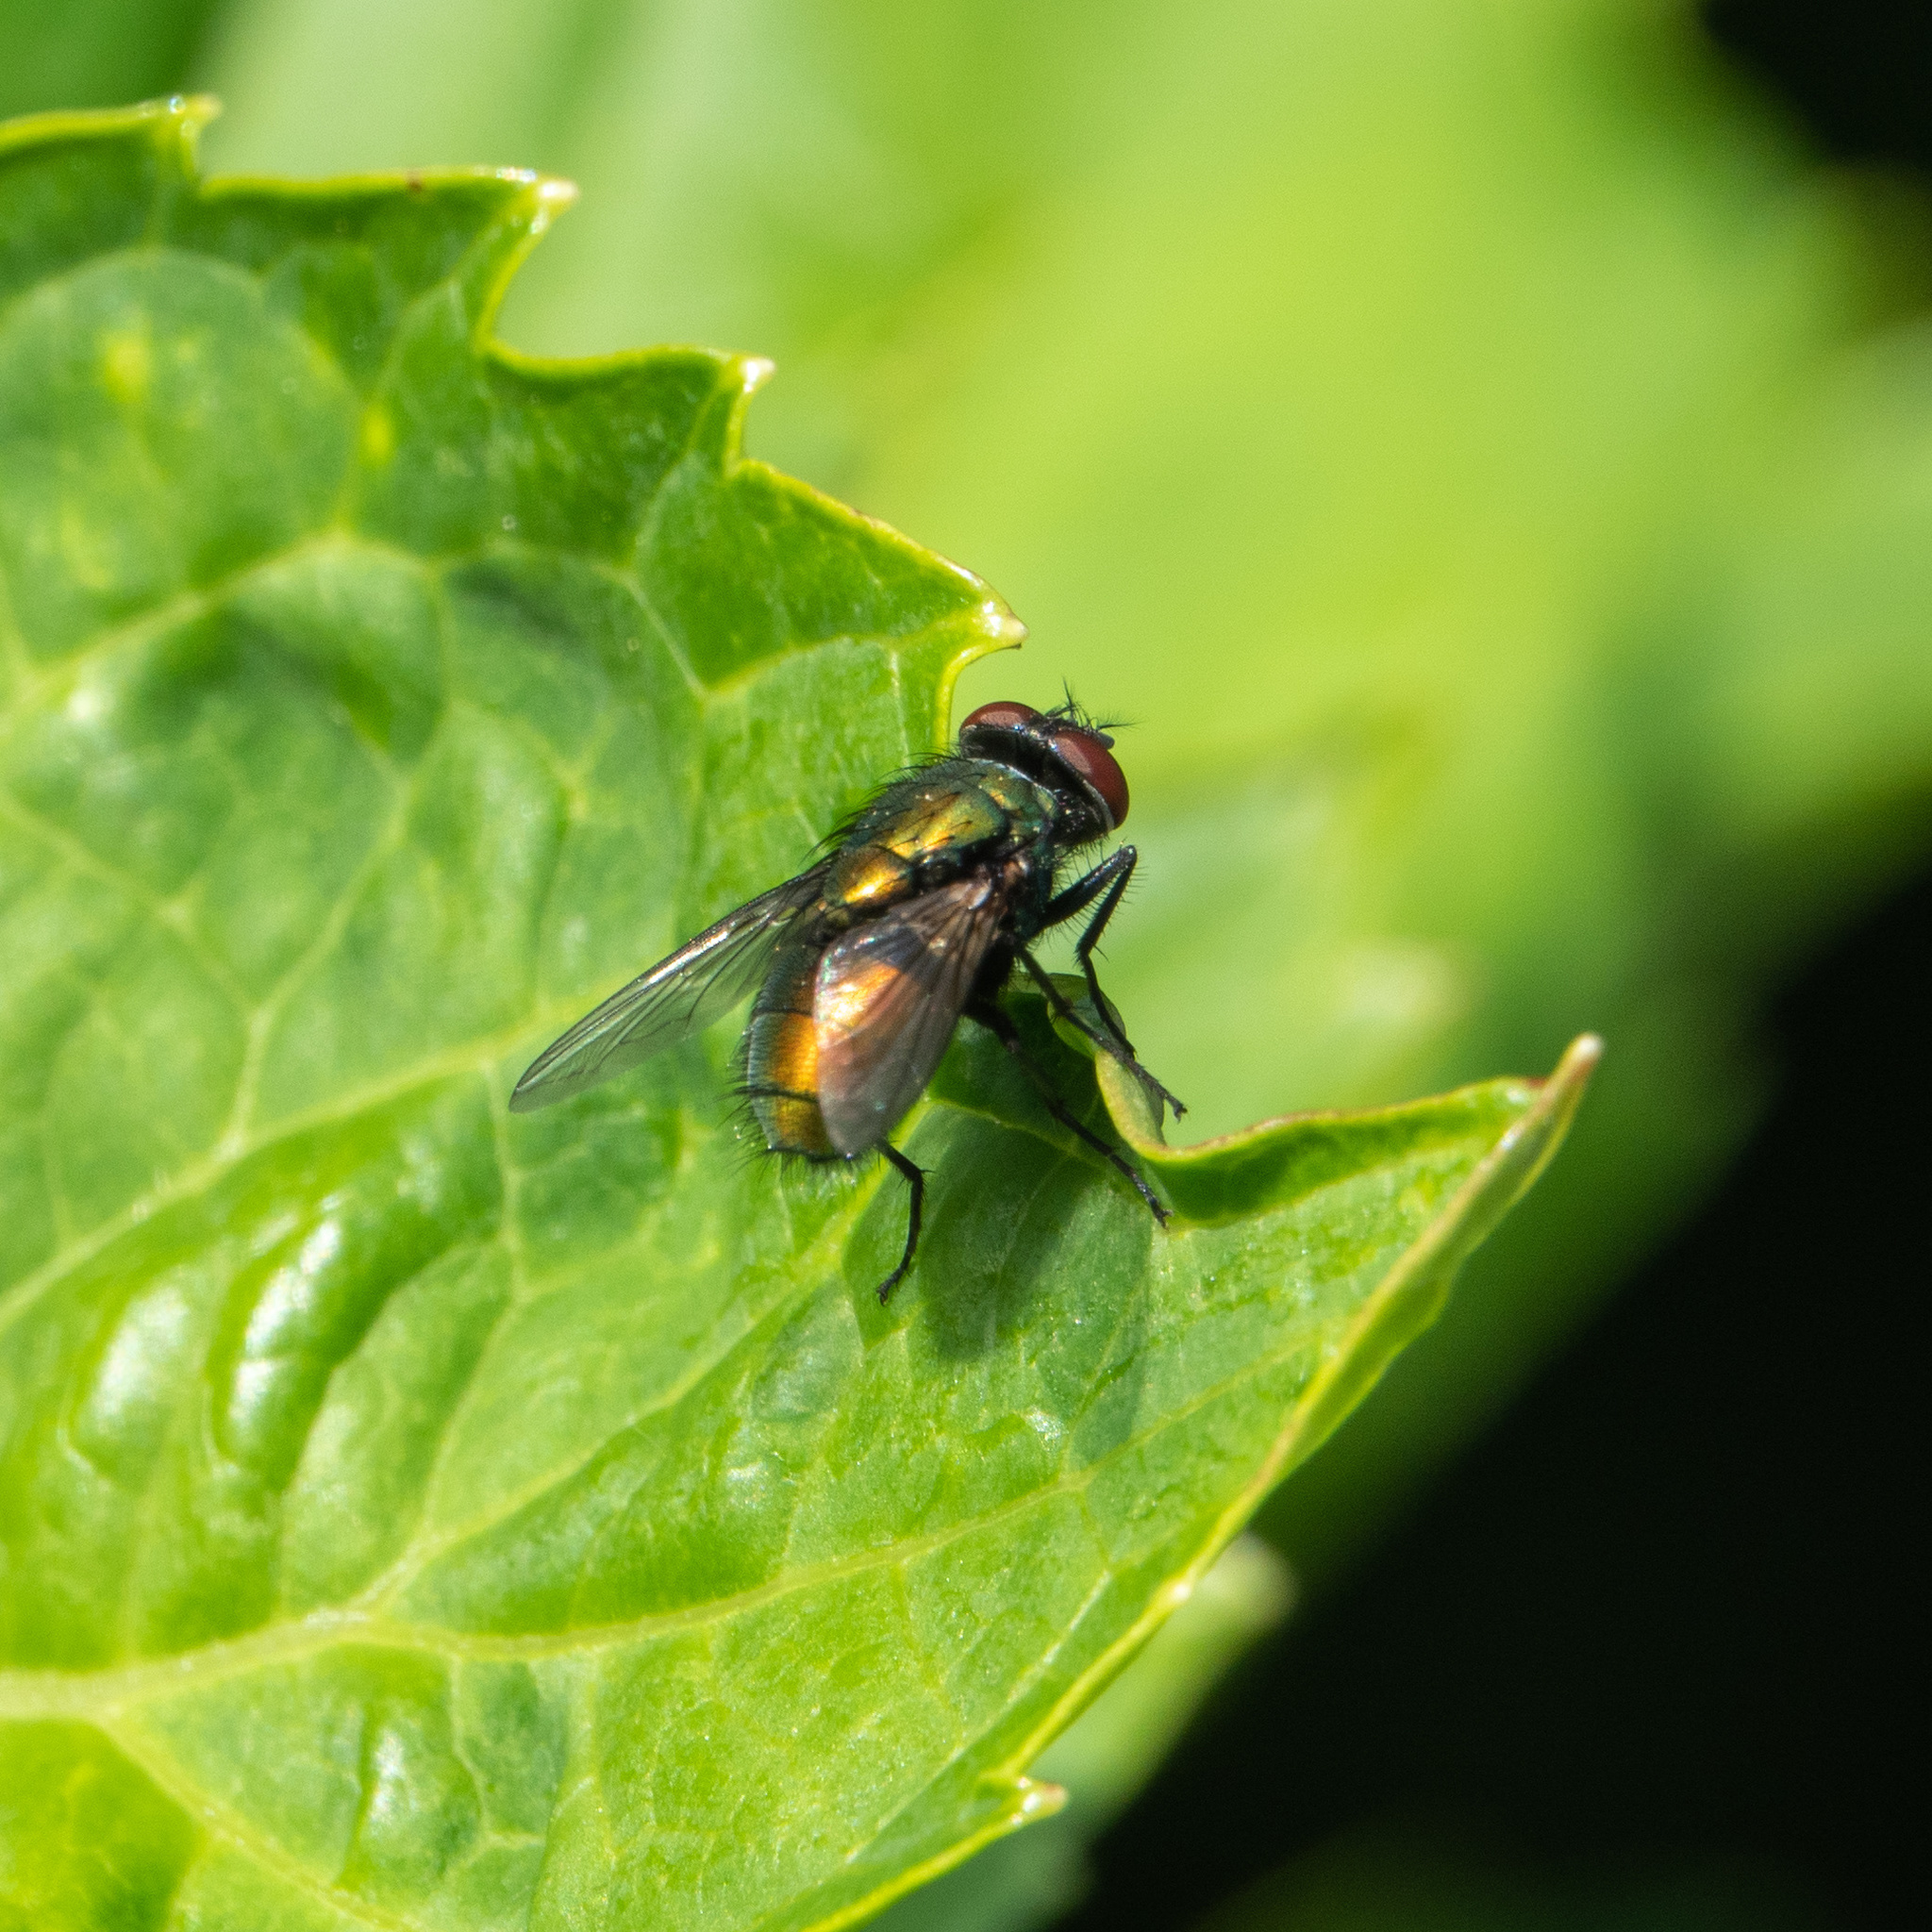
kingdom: Animalia
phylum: Arthropoda
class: Insecta
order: Diptera
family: Calliphoridae
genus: Lucilia
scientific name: Lucilia sericata
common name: Blow fly
